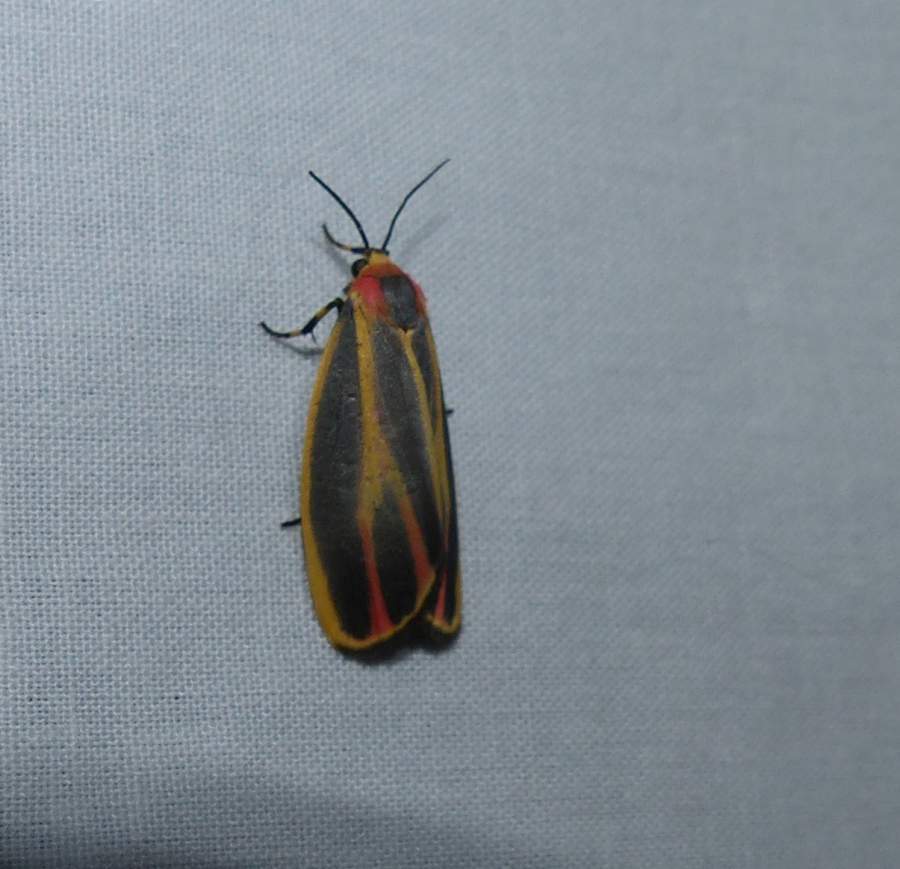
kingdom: Animalia
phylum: Arthropoda
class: Insecta
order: Lepidoptera
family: Erebidae
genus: Hypoprepia
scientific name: Hypoprepia fucosa
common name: Painted lichen moth
